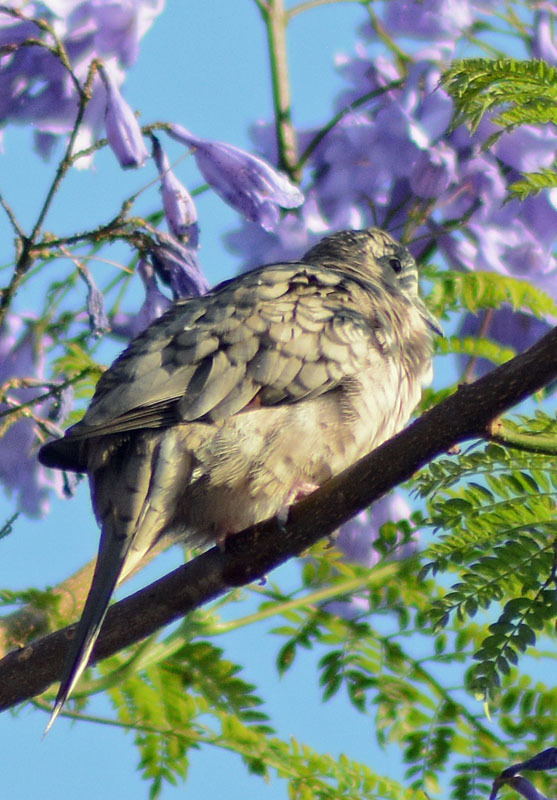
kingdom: Animalia
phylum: Chordata
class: Aves
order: Columbiformes
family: Columbidae
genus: Columbina
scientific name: Columbina inca
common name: Inca dove
